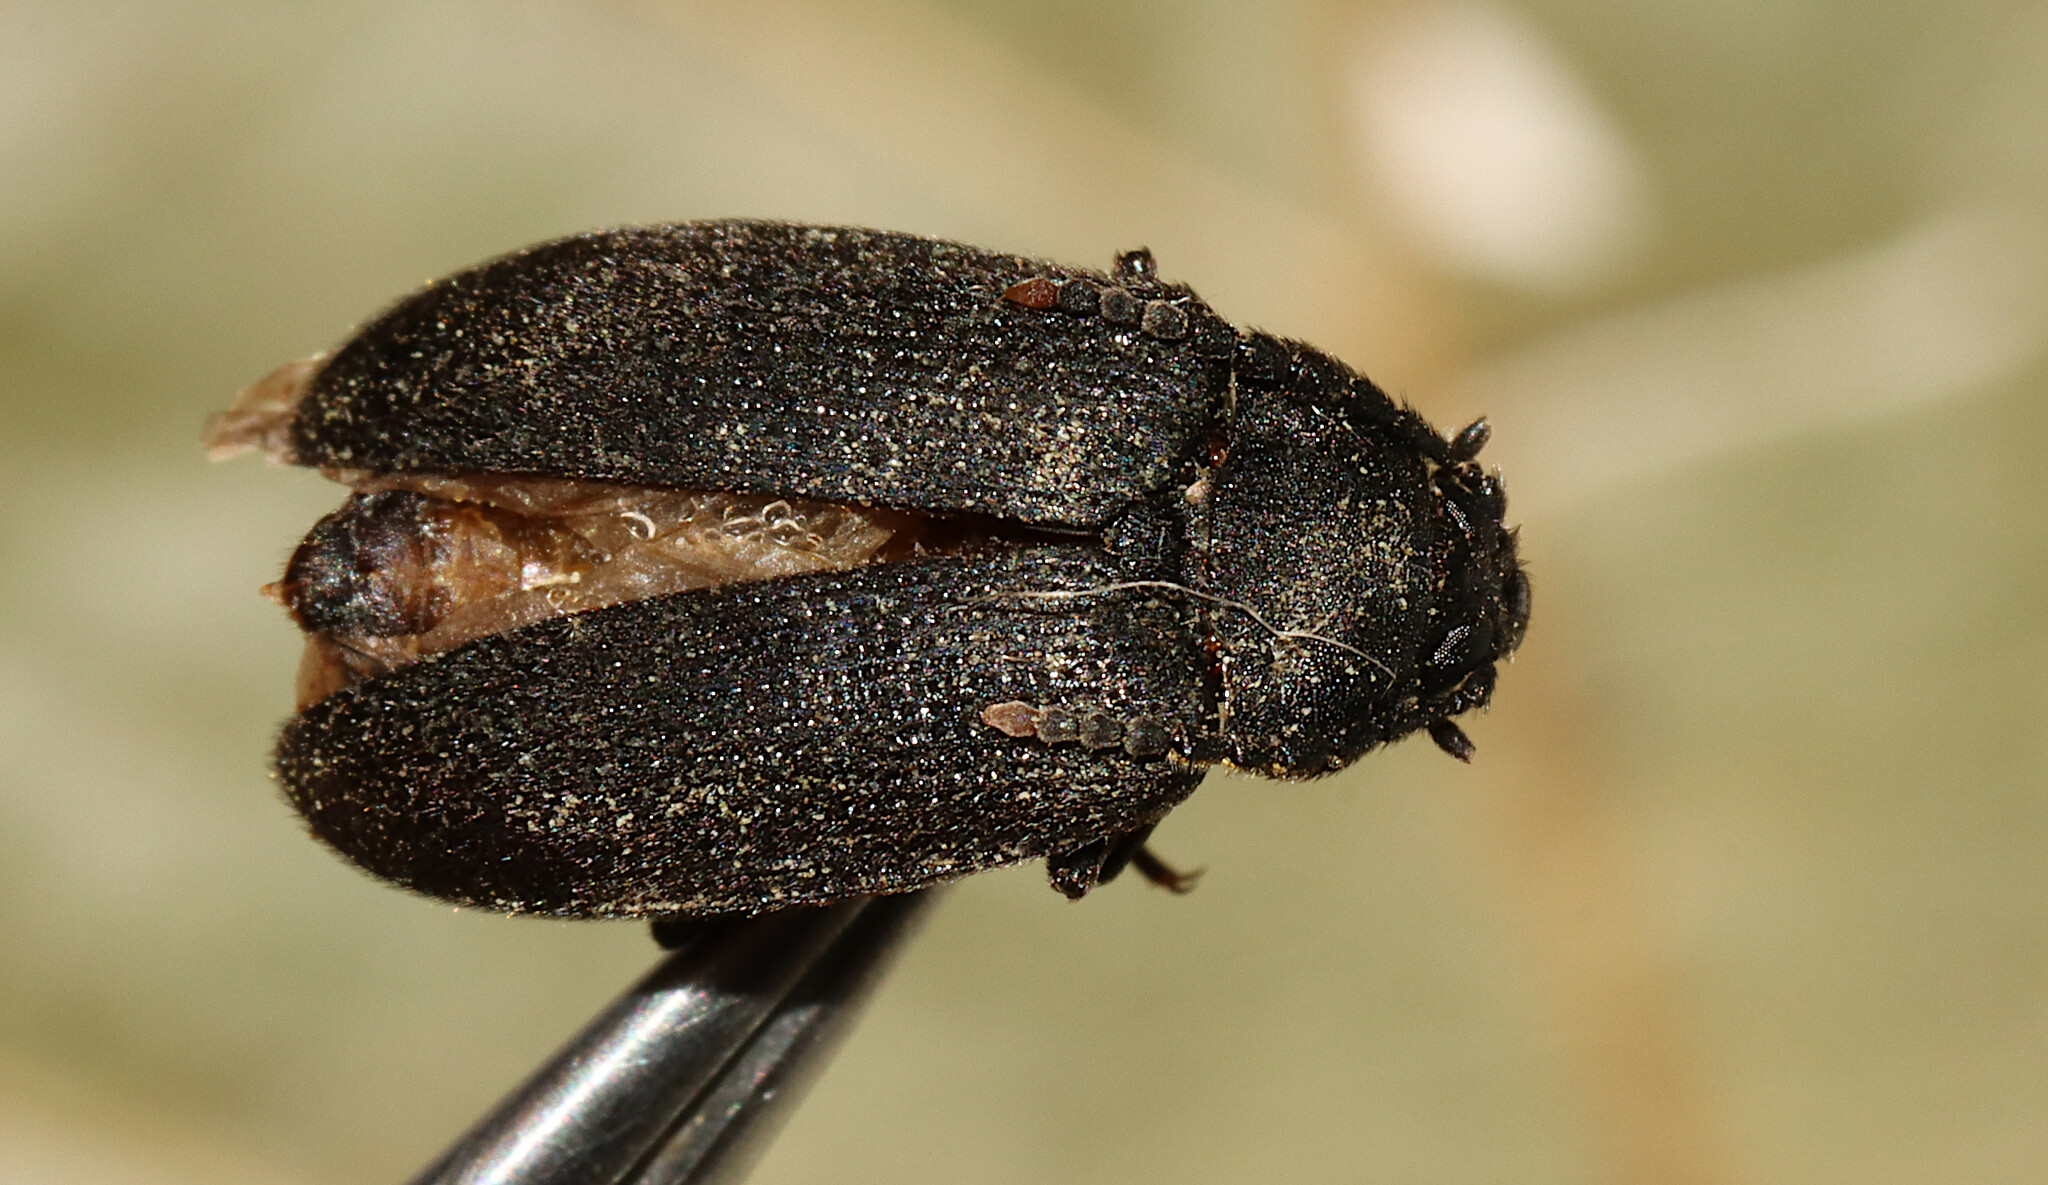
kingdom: Animalia
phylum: Arthropoda
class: Insecta
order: Coleoptera
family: Tetratomidae
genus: Penthe
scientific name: Penthe pimelia
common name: Velvety bark beetle
